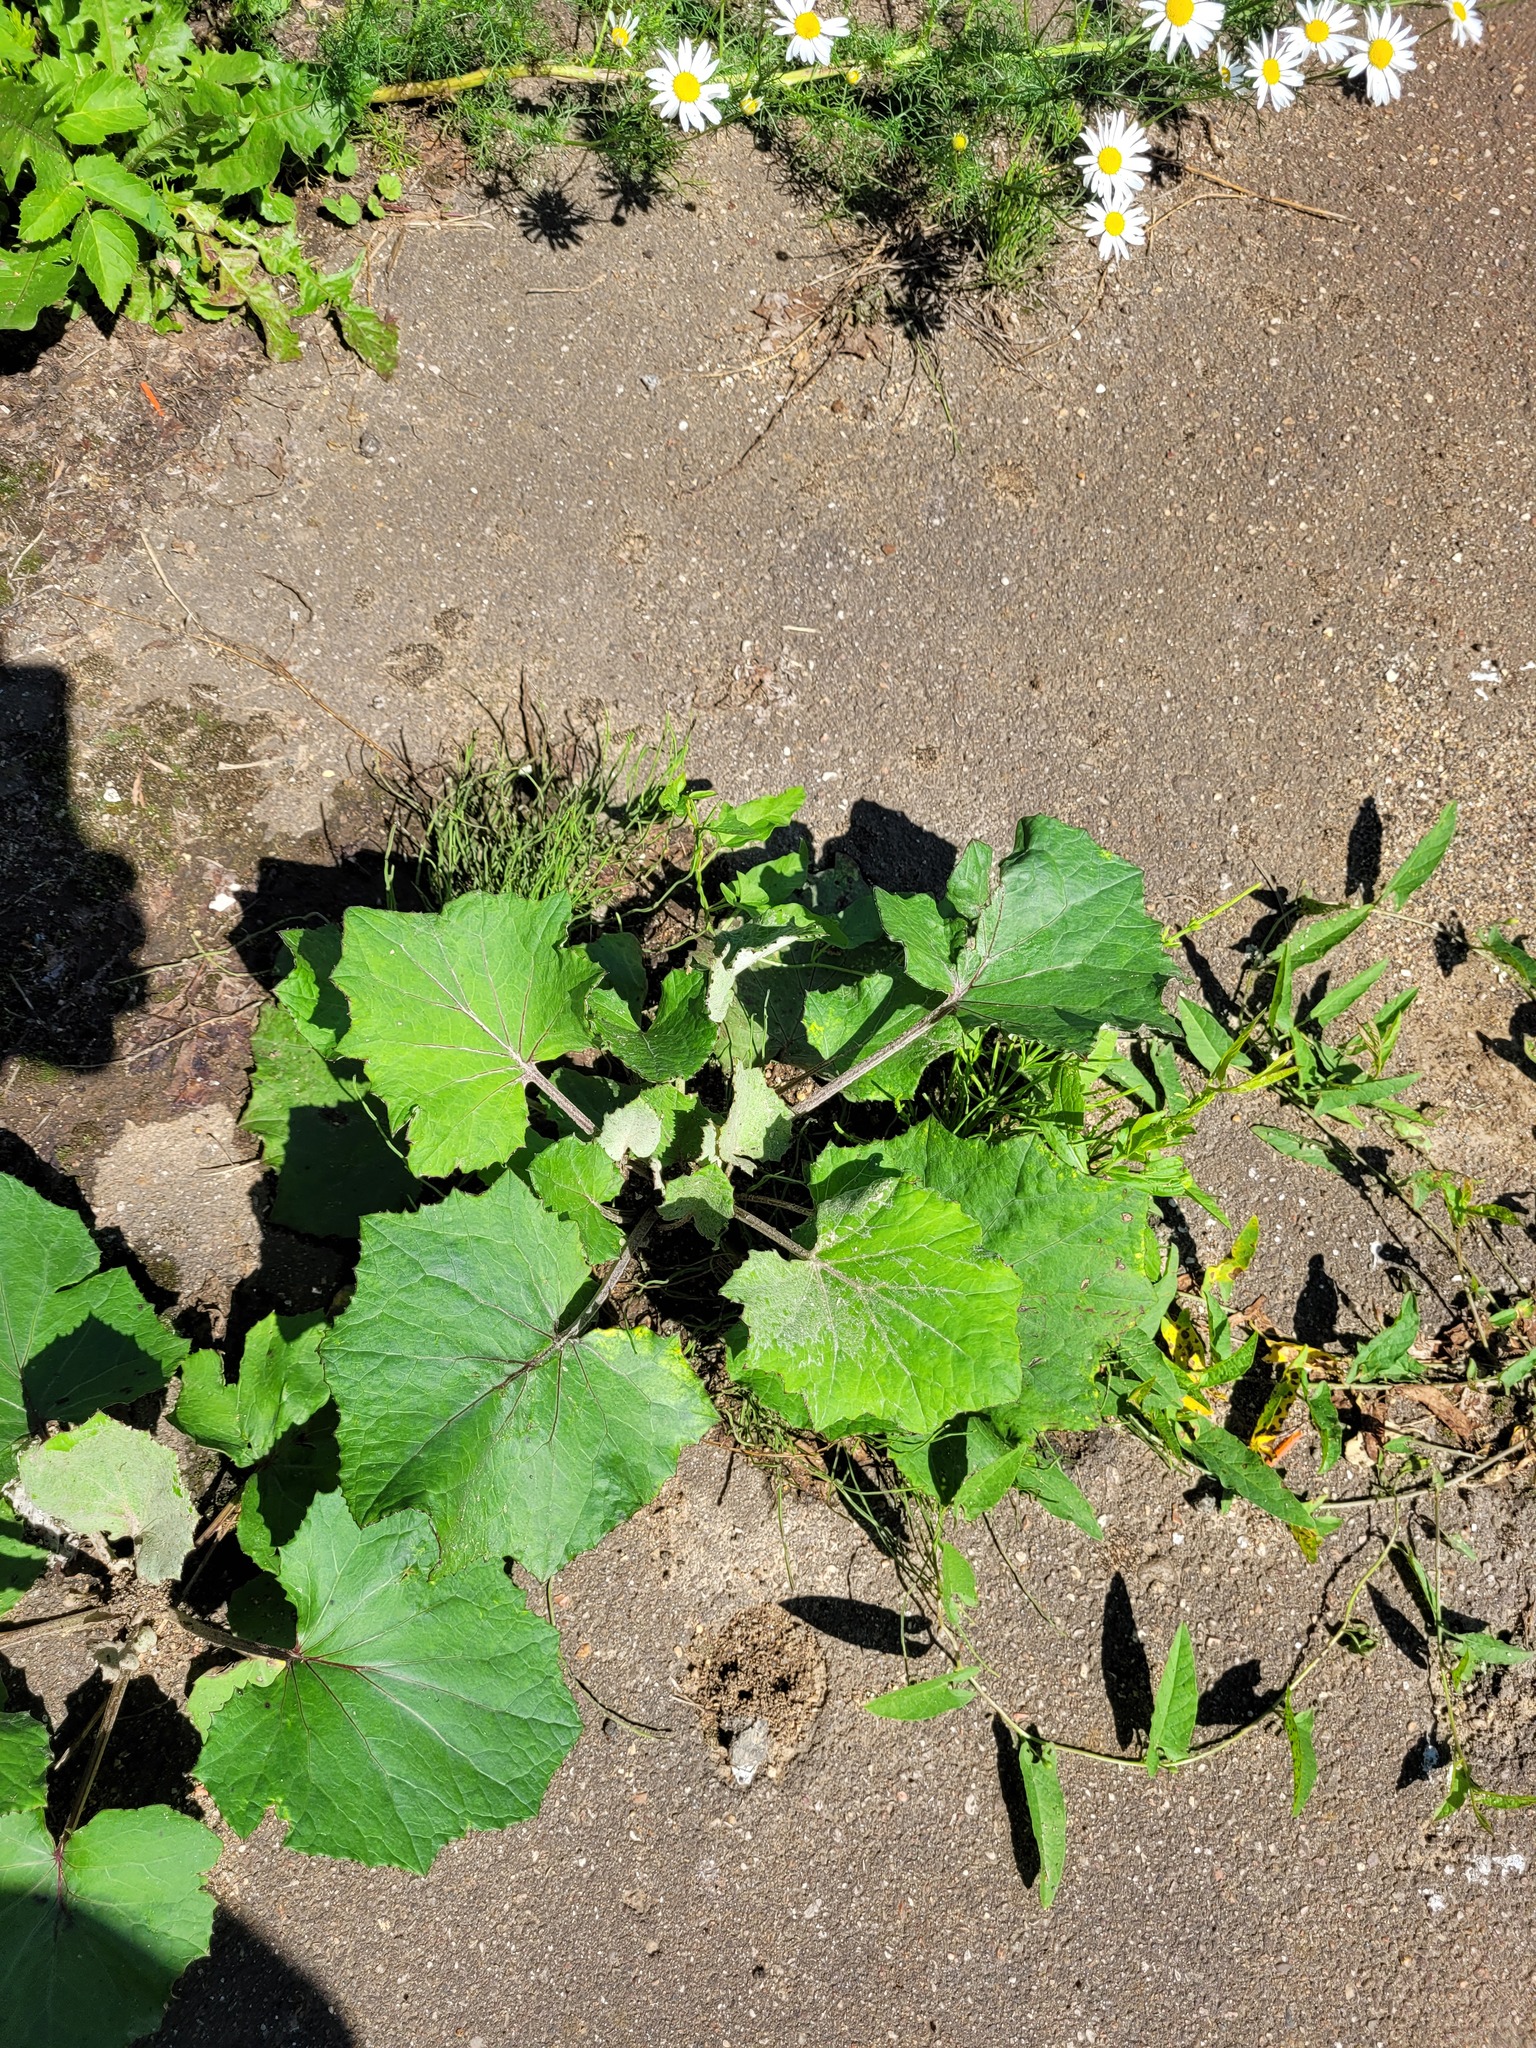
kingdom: Plantae
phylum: Tracheophyta
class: Magnoliopsida
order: Asterales
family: Asteraceae
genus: Tussilago
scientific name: Tussilago farfara
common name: Coltsfoot
